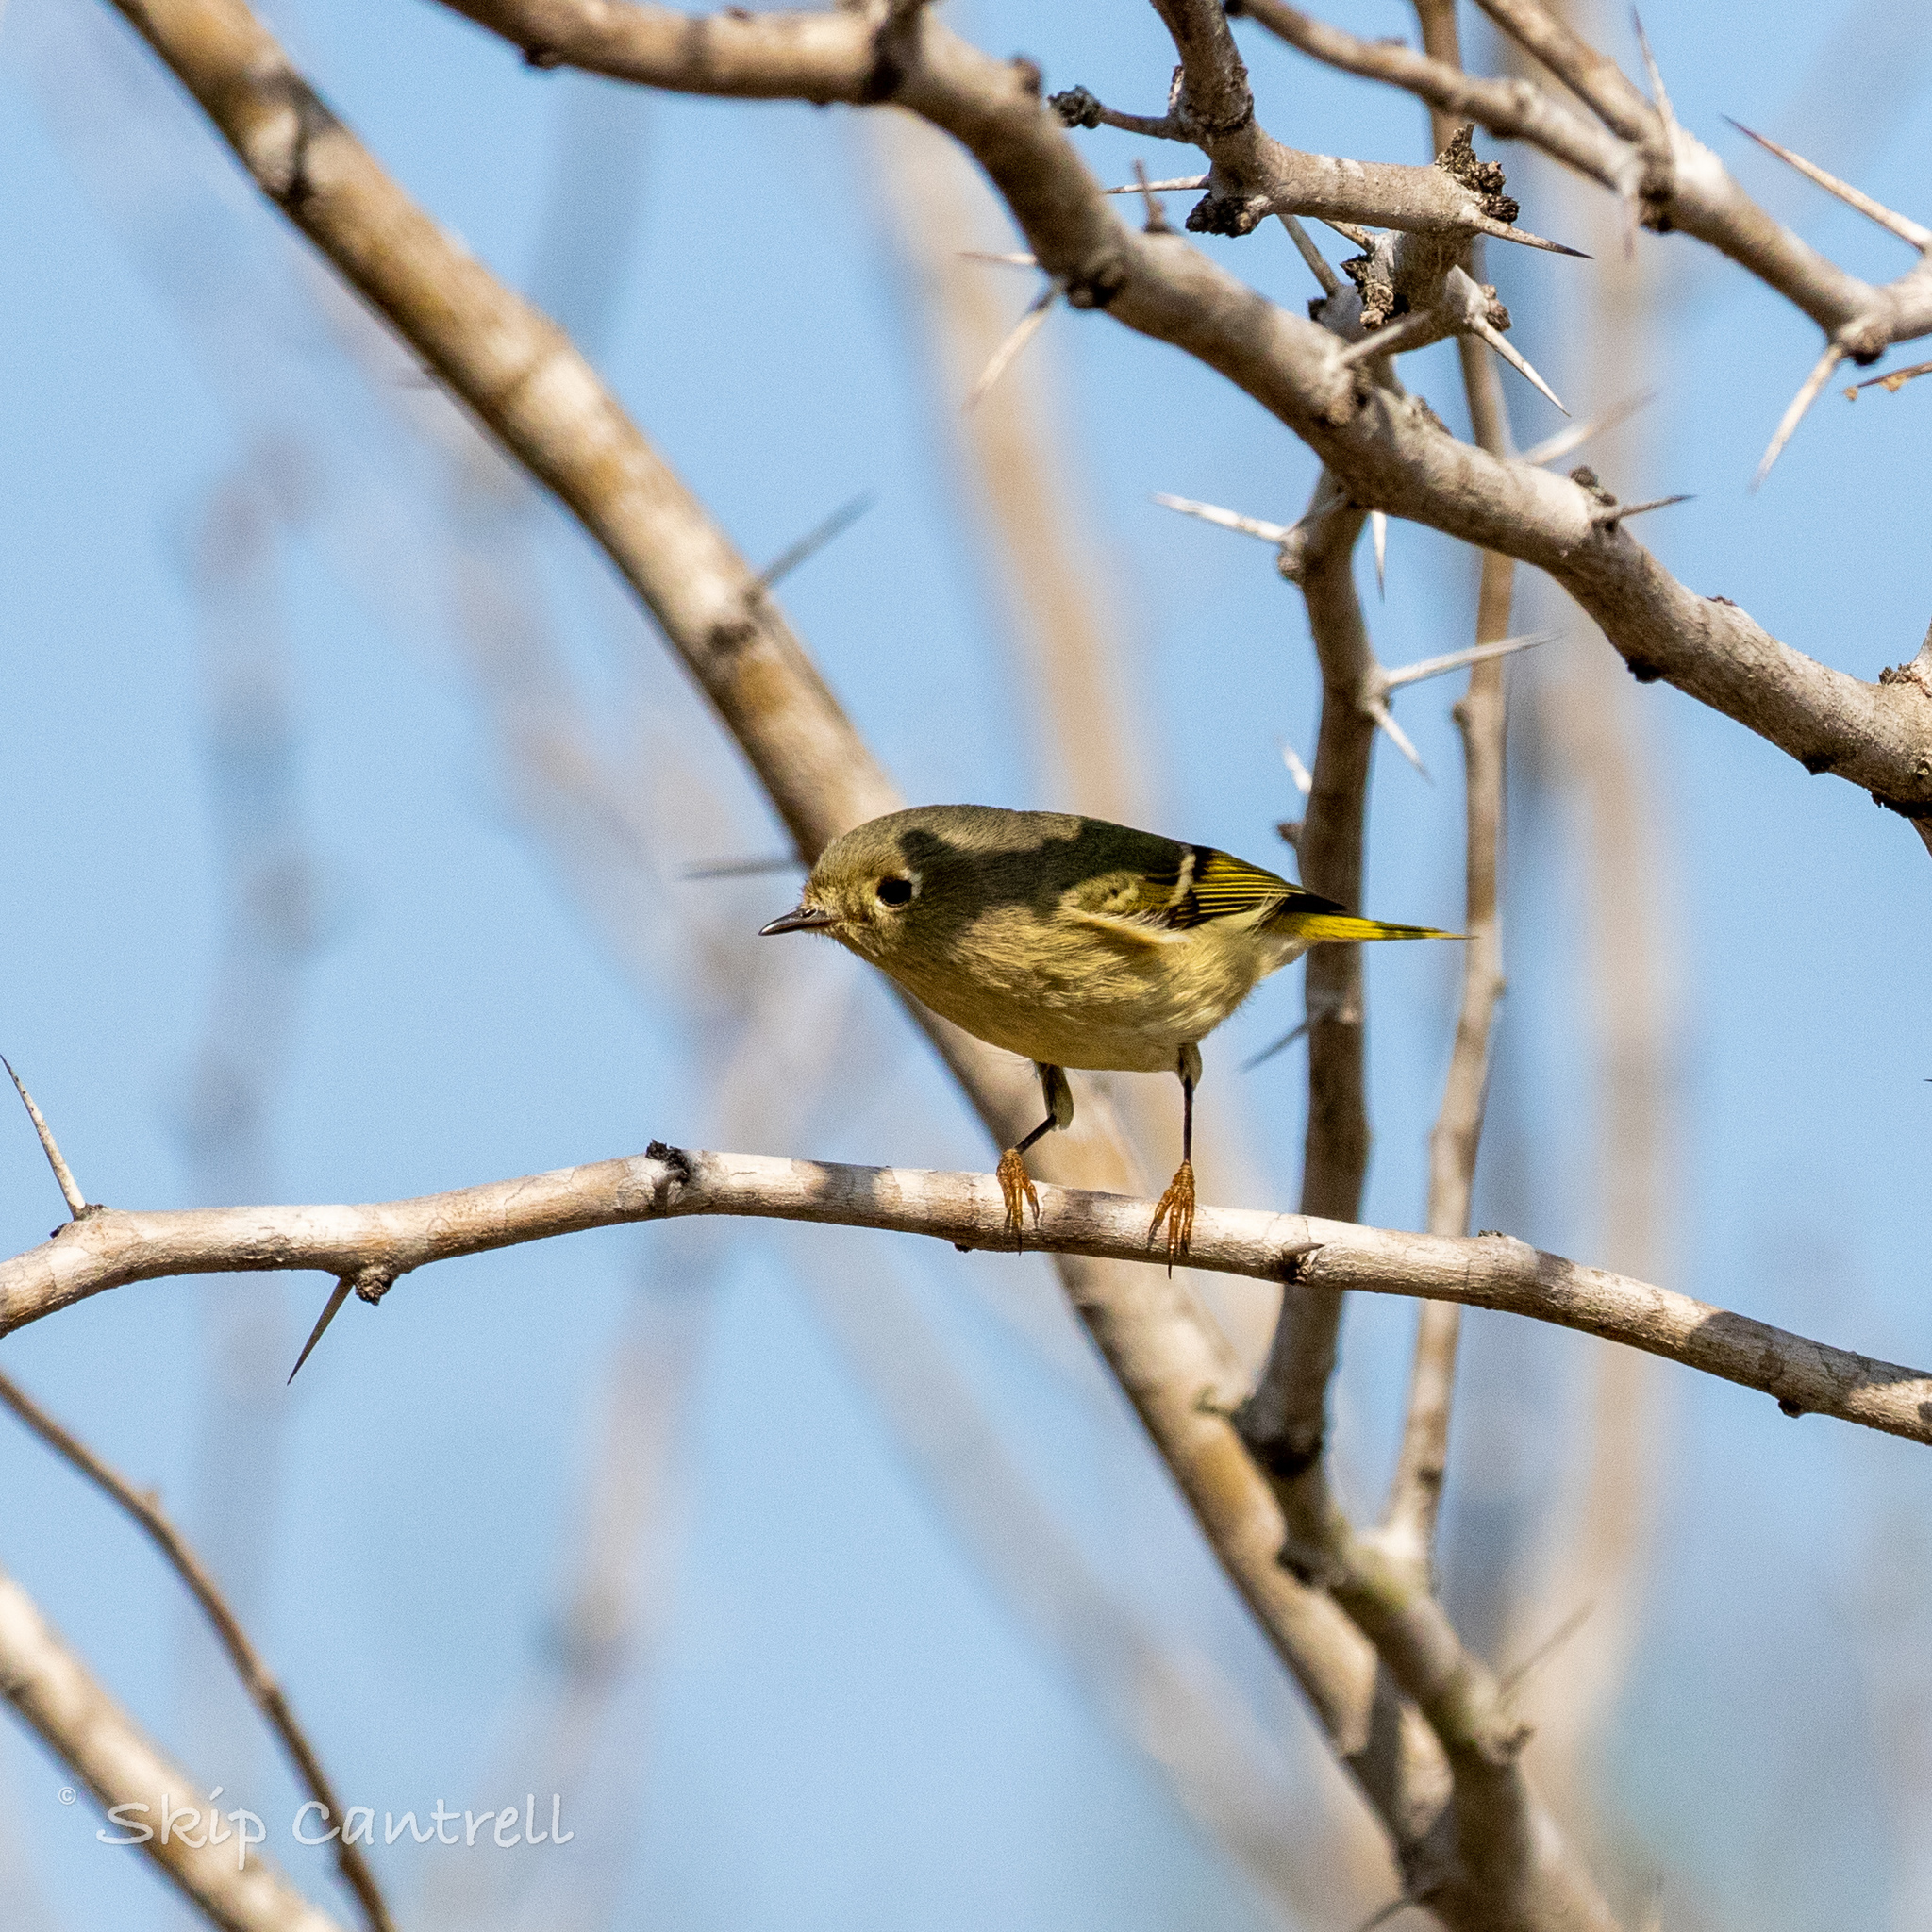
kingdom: Animalia
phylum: Chordata
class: Aves
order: Passeriformes
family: Regulidae
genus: Regulus
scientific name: Regulus calendula
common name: Ruby-crowned kinglet
